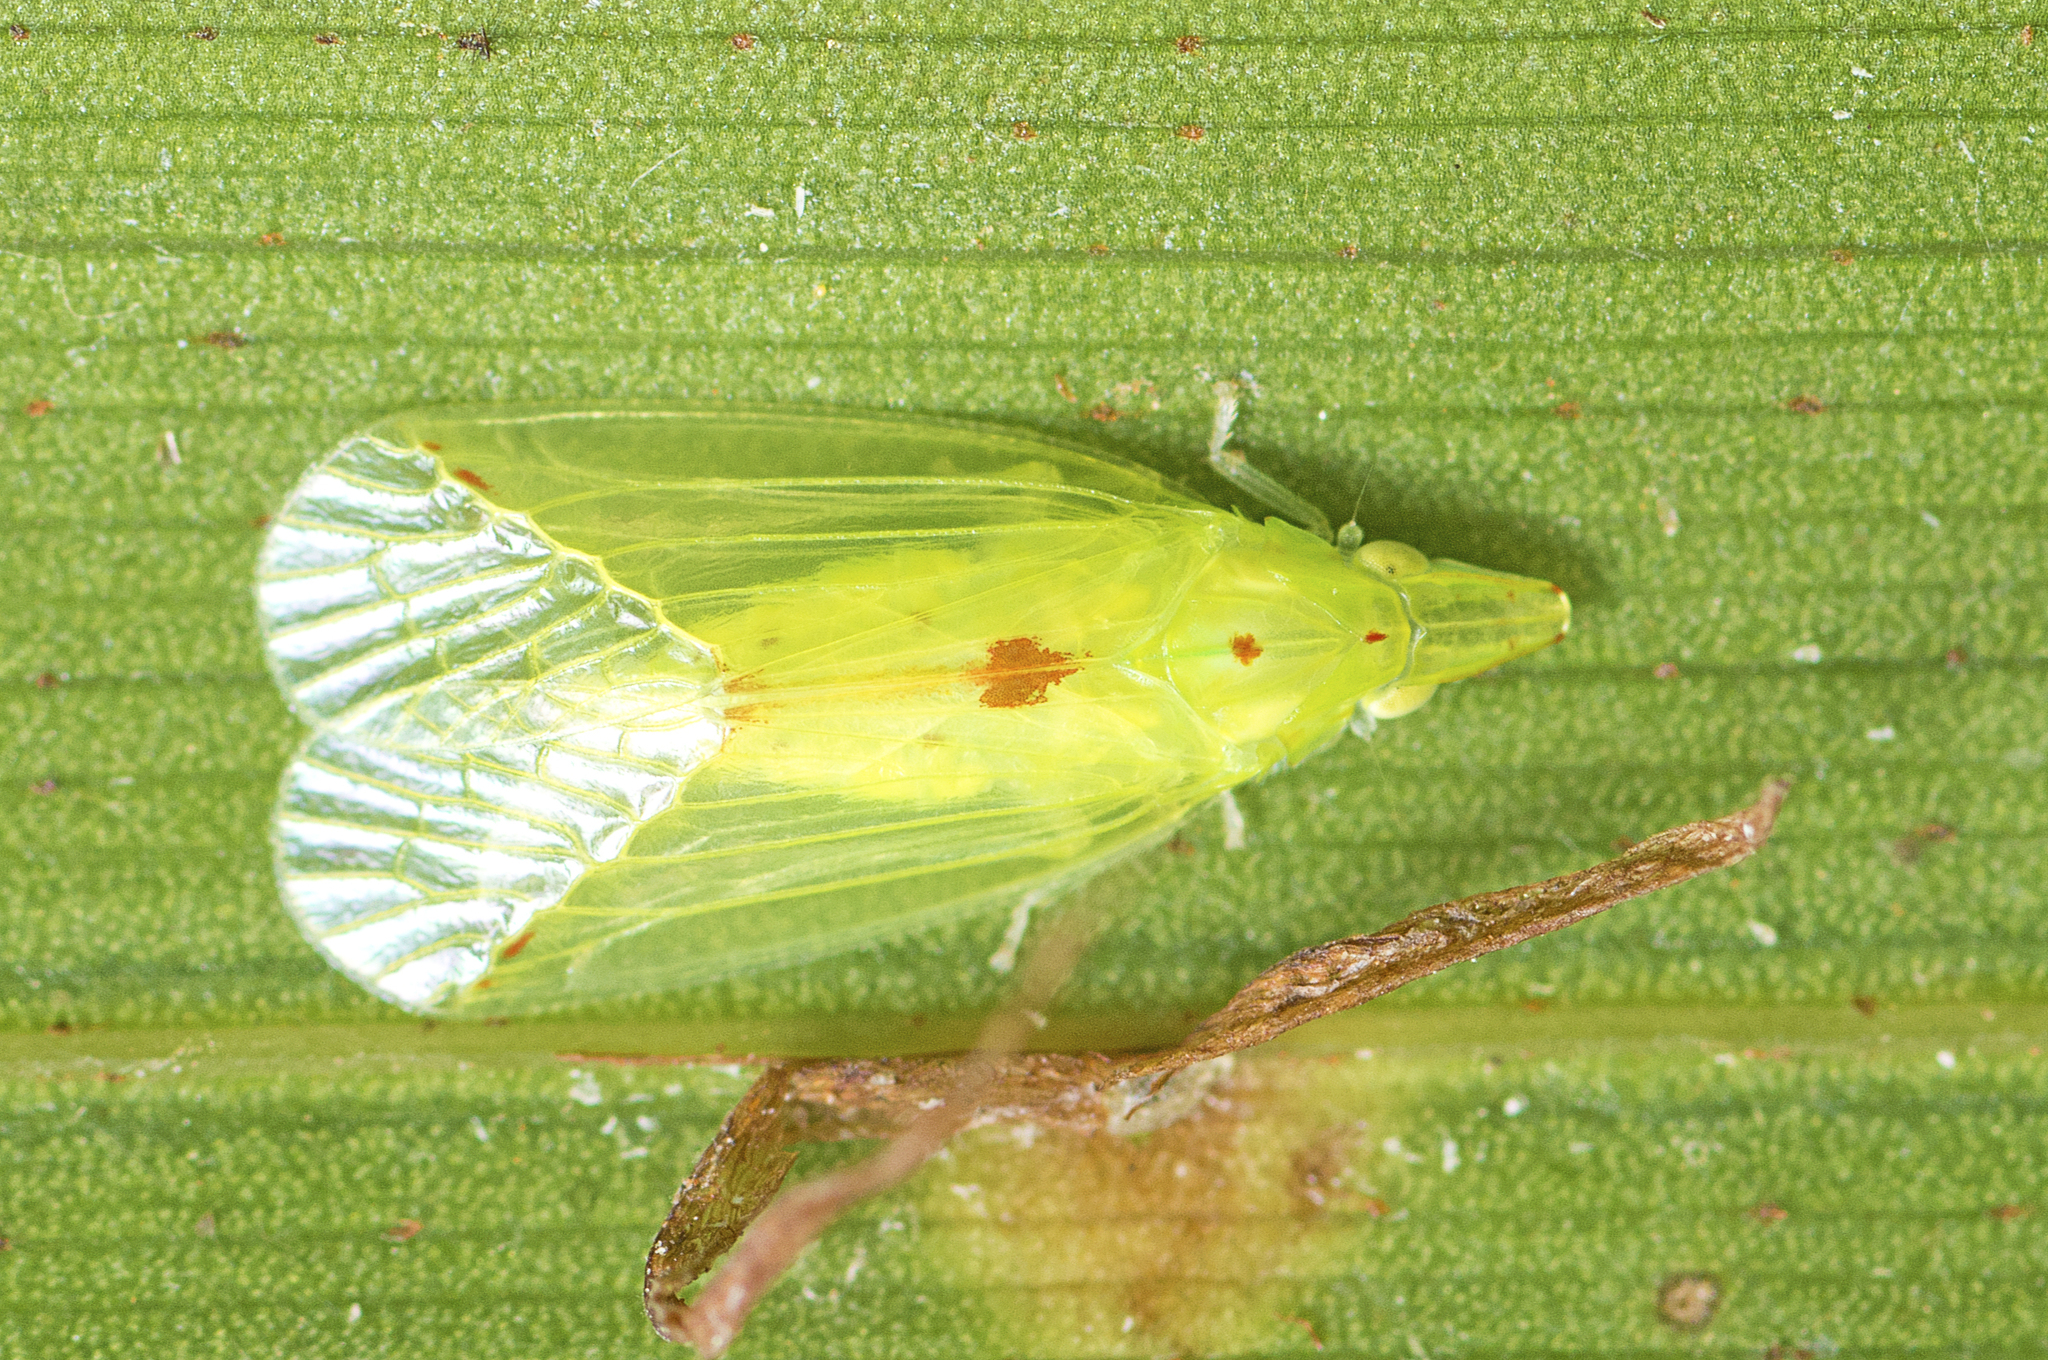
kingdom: Animalia
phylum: Arthropoda
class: Insecta
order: Hemiptera
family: Tropiduchidae
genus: Tambinia
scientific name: Tambinia sexmaculata
